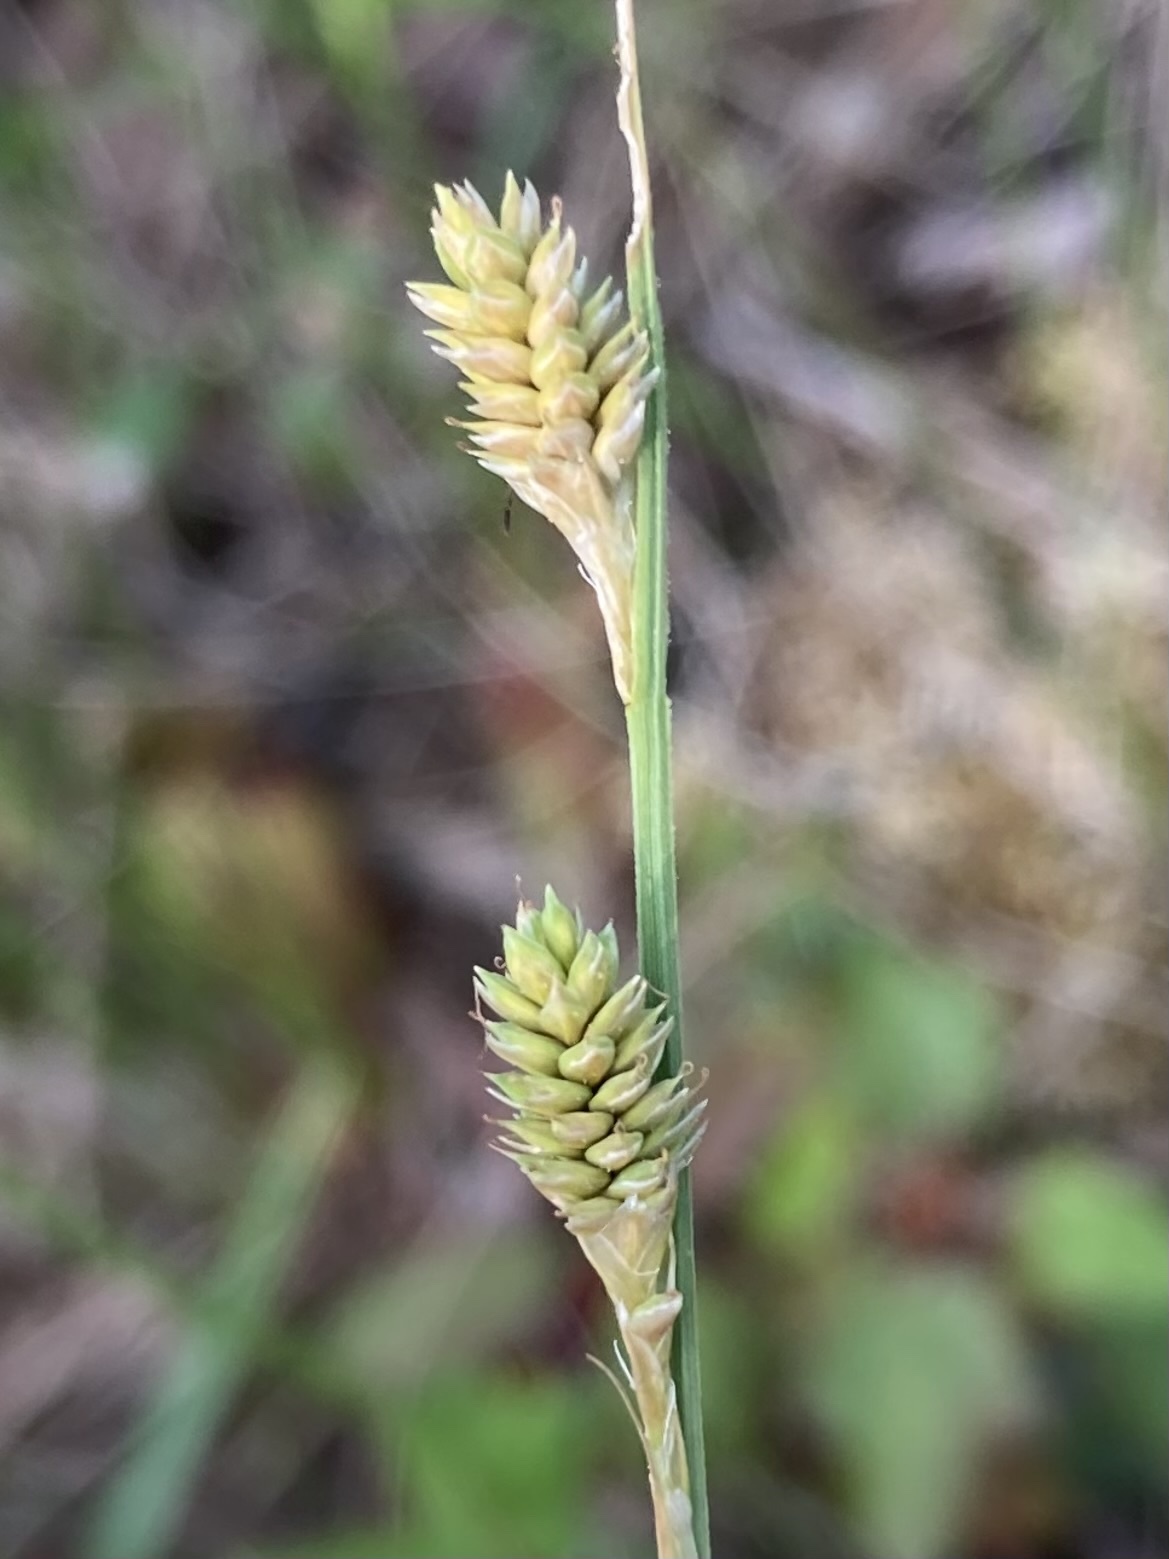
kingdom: Plantae
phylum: Tracheophyta
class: Liliopsida
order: Poales
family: Cyperaceae
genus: Carex
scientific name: Carex canescens
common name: White sedge
